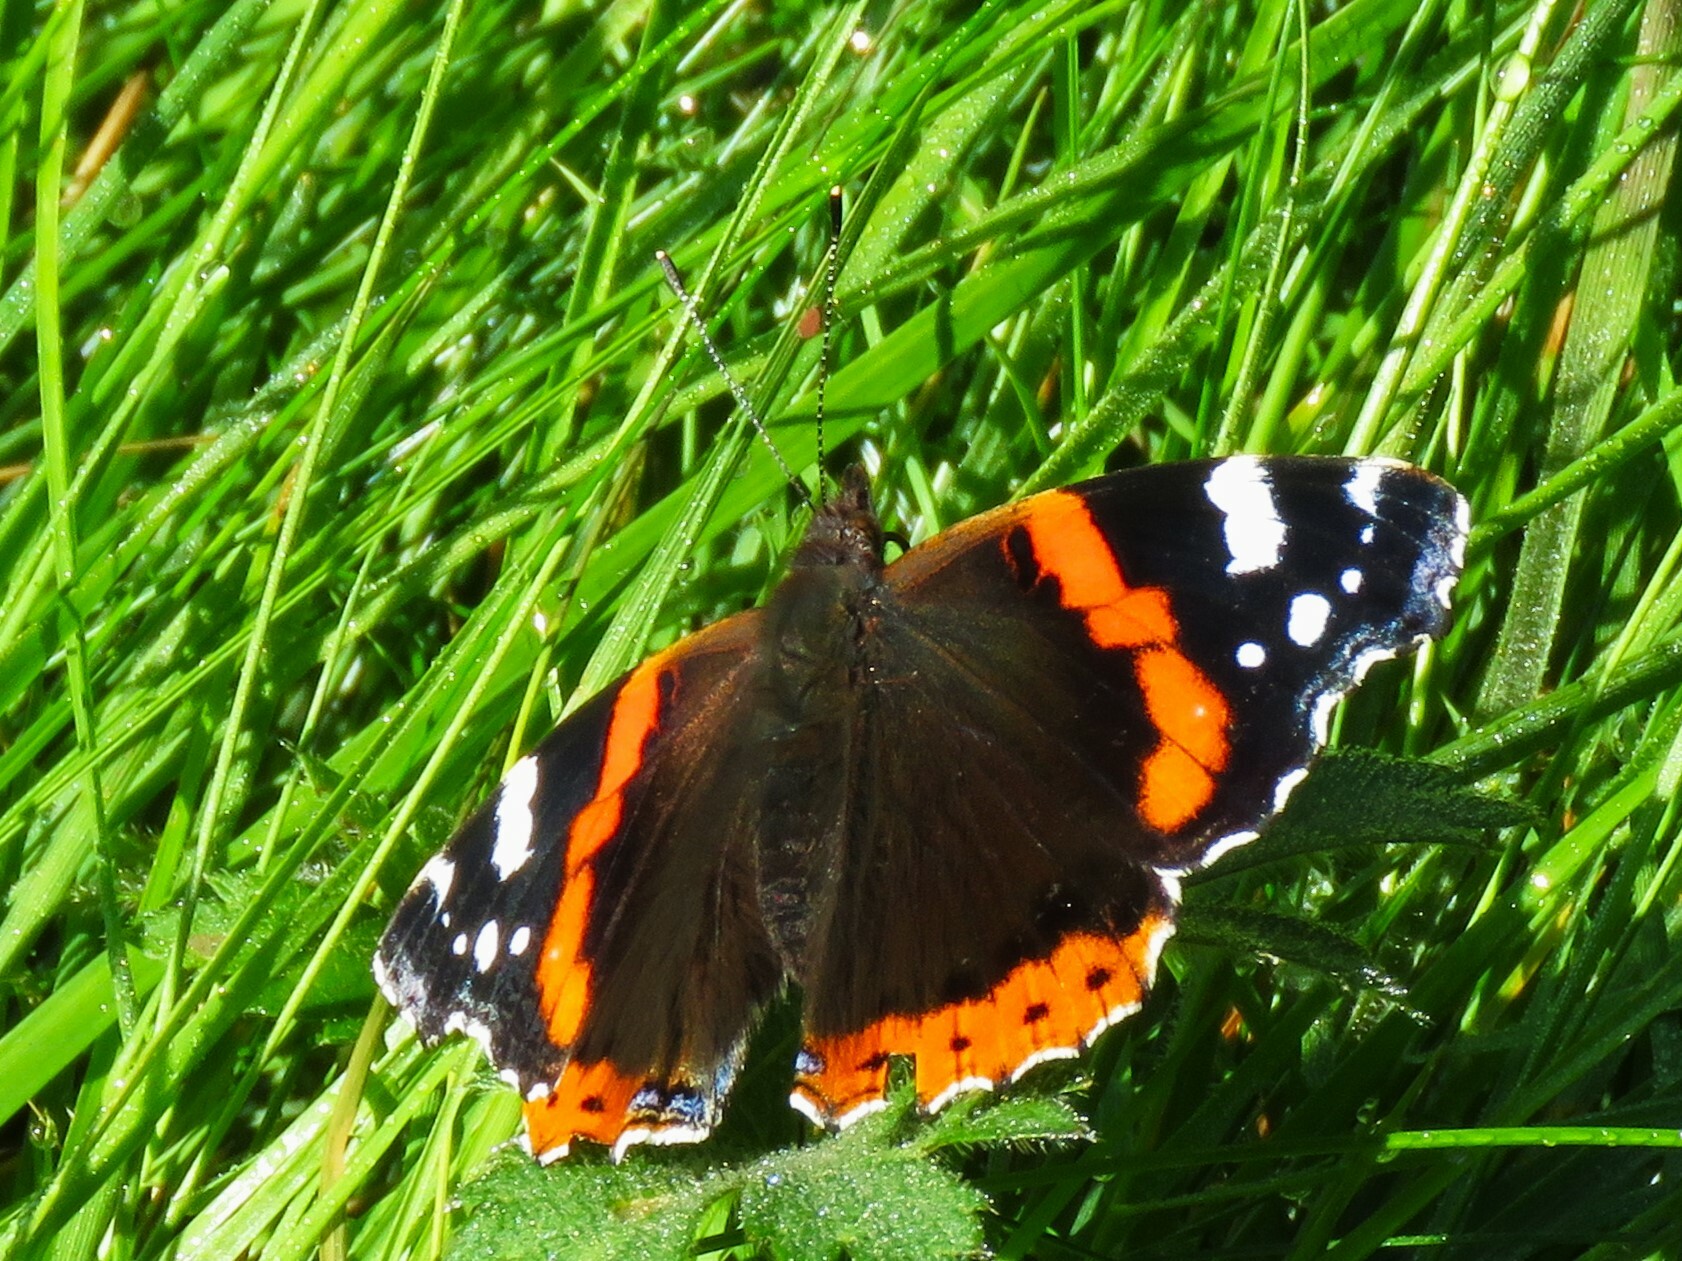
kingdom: Animalia
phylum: Arthropoda
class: Insecta
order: Lepidoptera
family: Nymphalidae
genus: Vanessa
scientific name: Vanessa atalanta
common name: Red admiral
